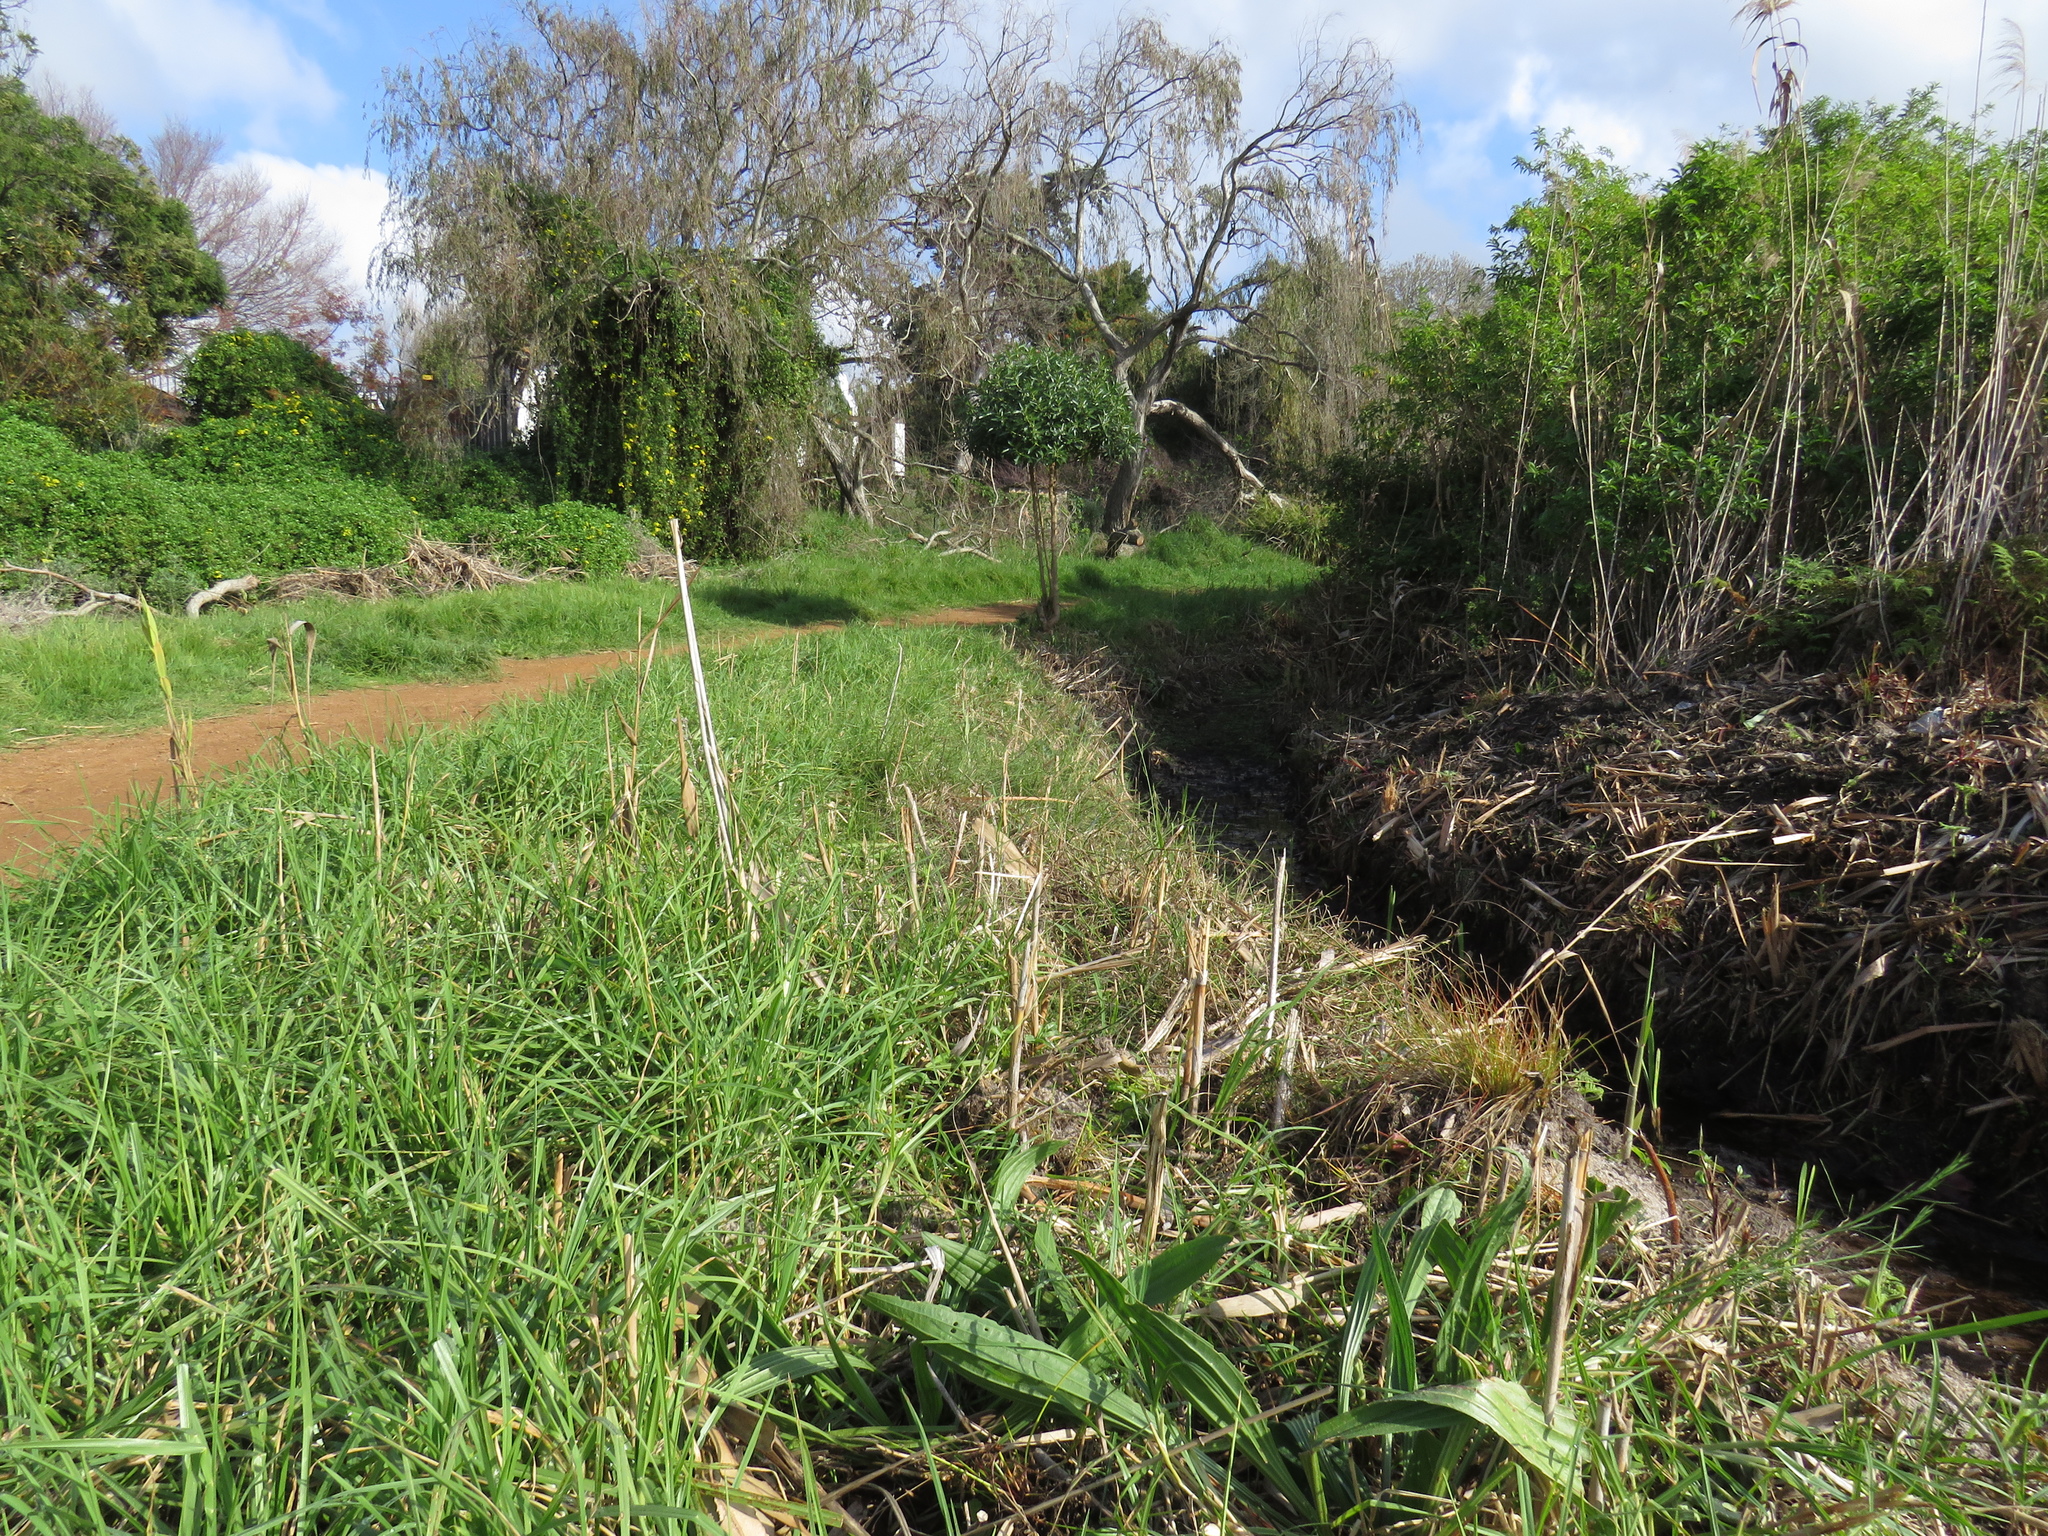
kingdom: Plantae
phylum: Tracheophyta
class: Magnoliopsida
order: Fabales
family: Fabaceae
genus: Psoralea
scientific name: Psoralea fascicularis
